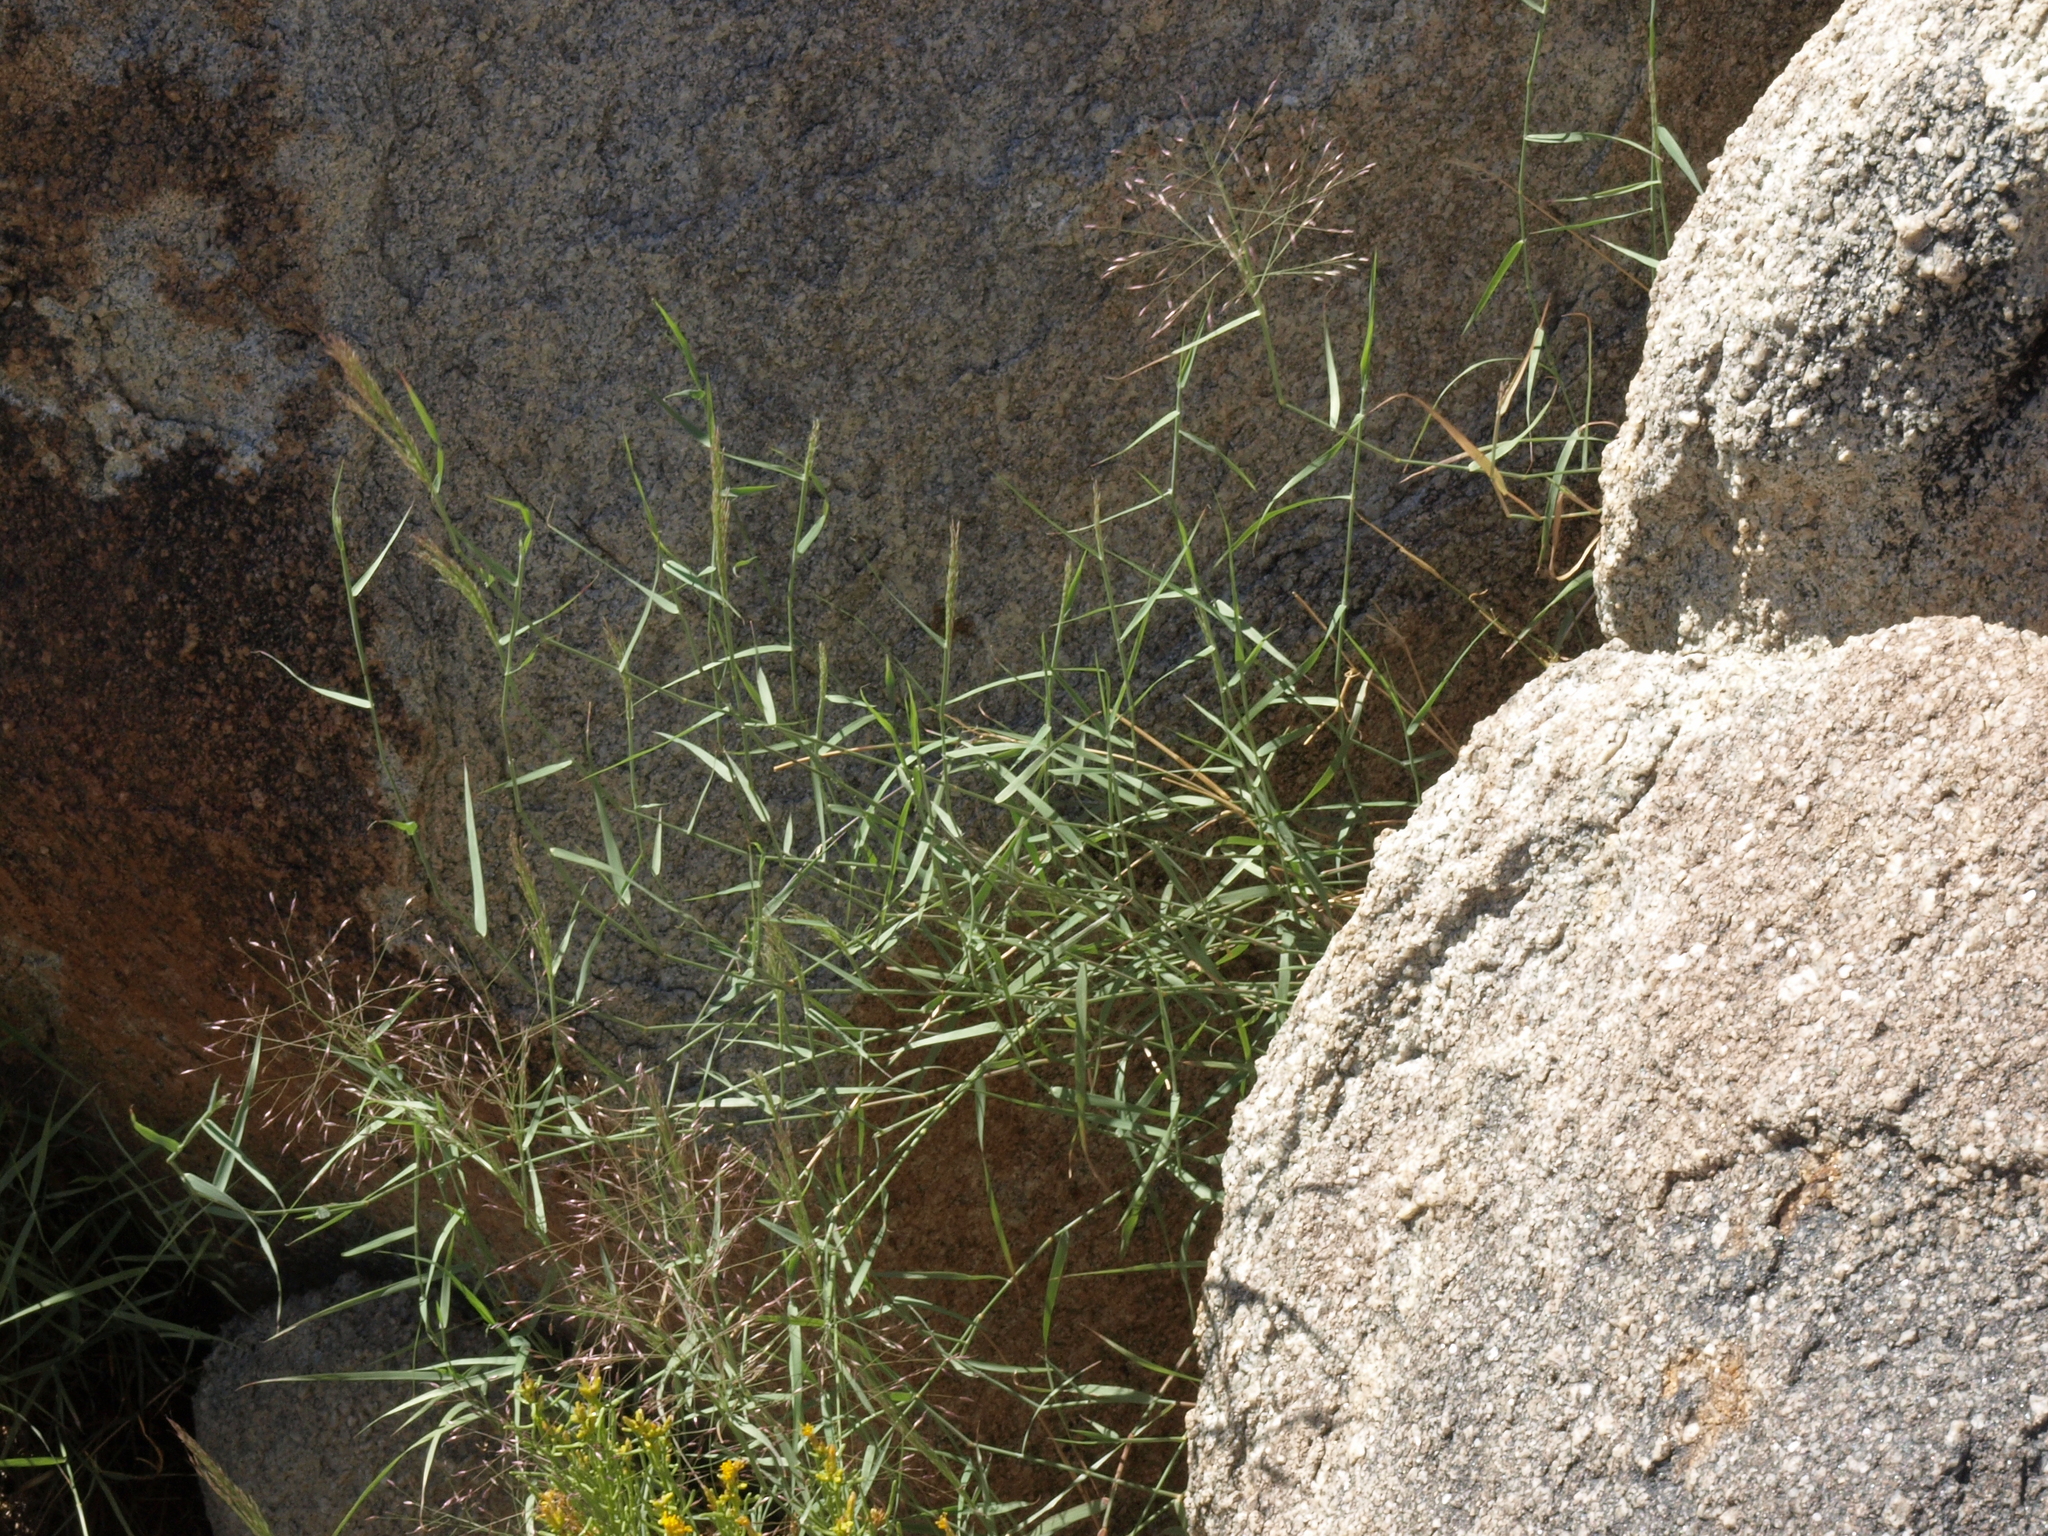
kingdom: Plantae
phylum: Tracheophyta
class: Liliopsida
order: Poales
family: Poaceae
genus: Muhlenbergia
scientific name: Muhlenbergia porteri
